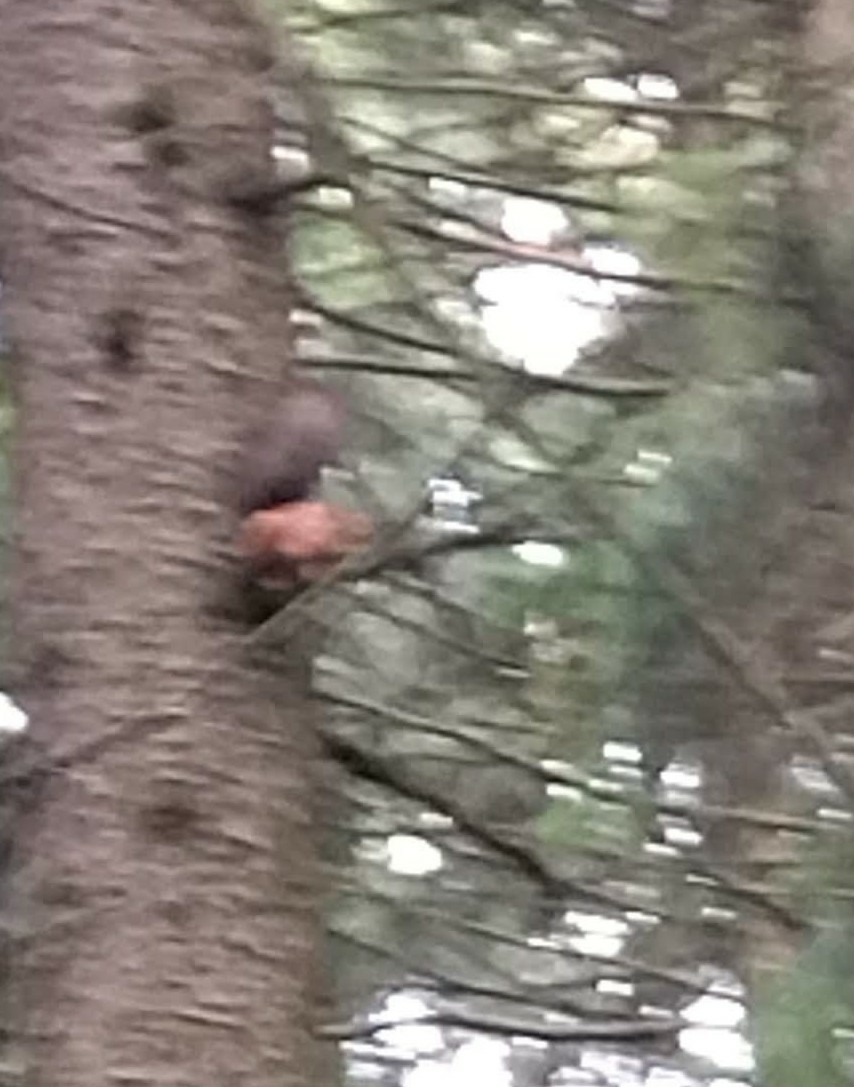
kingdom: Animalia
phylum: Chordata
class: Mammalia
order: Rodentia
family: Sciuridae
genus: Sciurus
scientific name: Sciurus vulgaris
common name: Eurasian red squirrel
